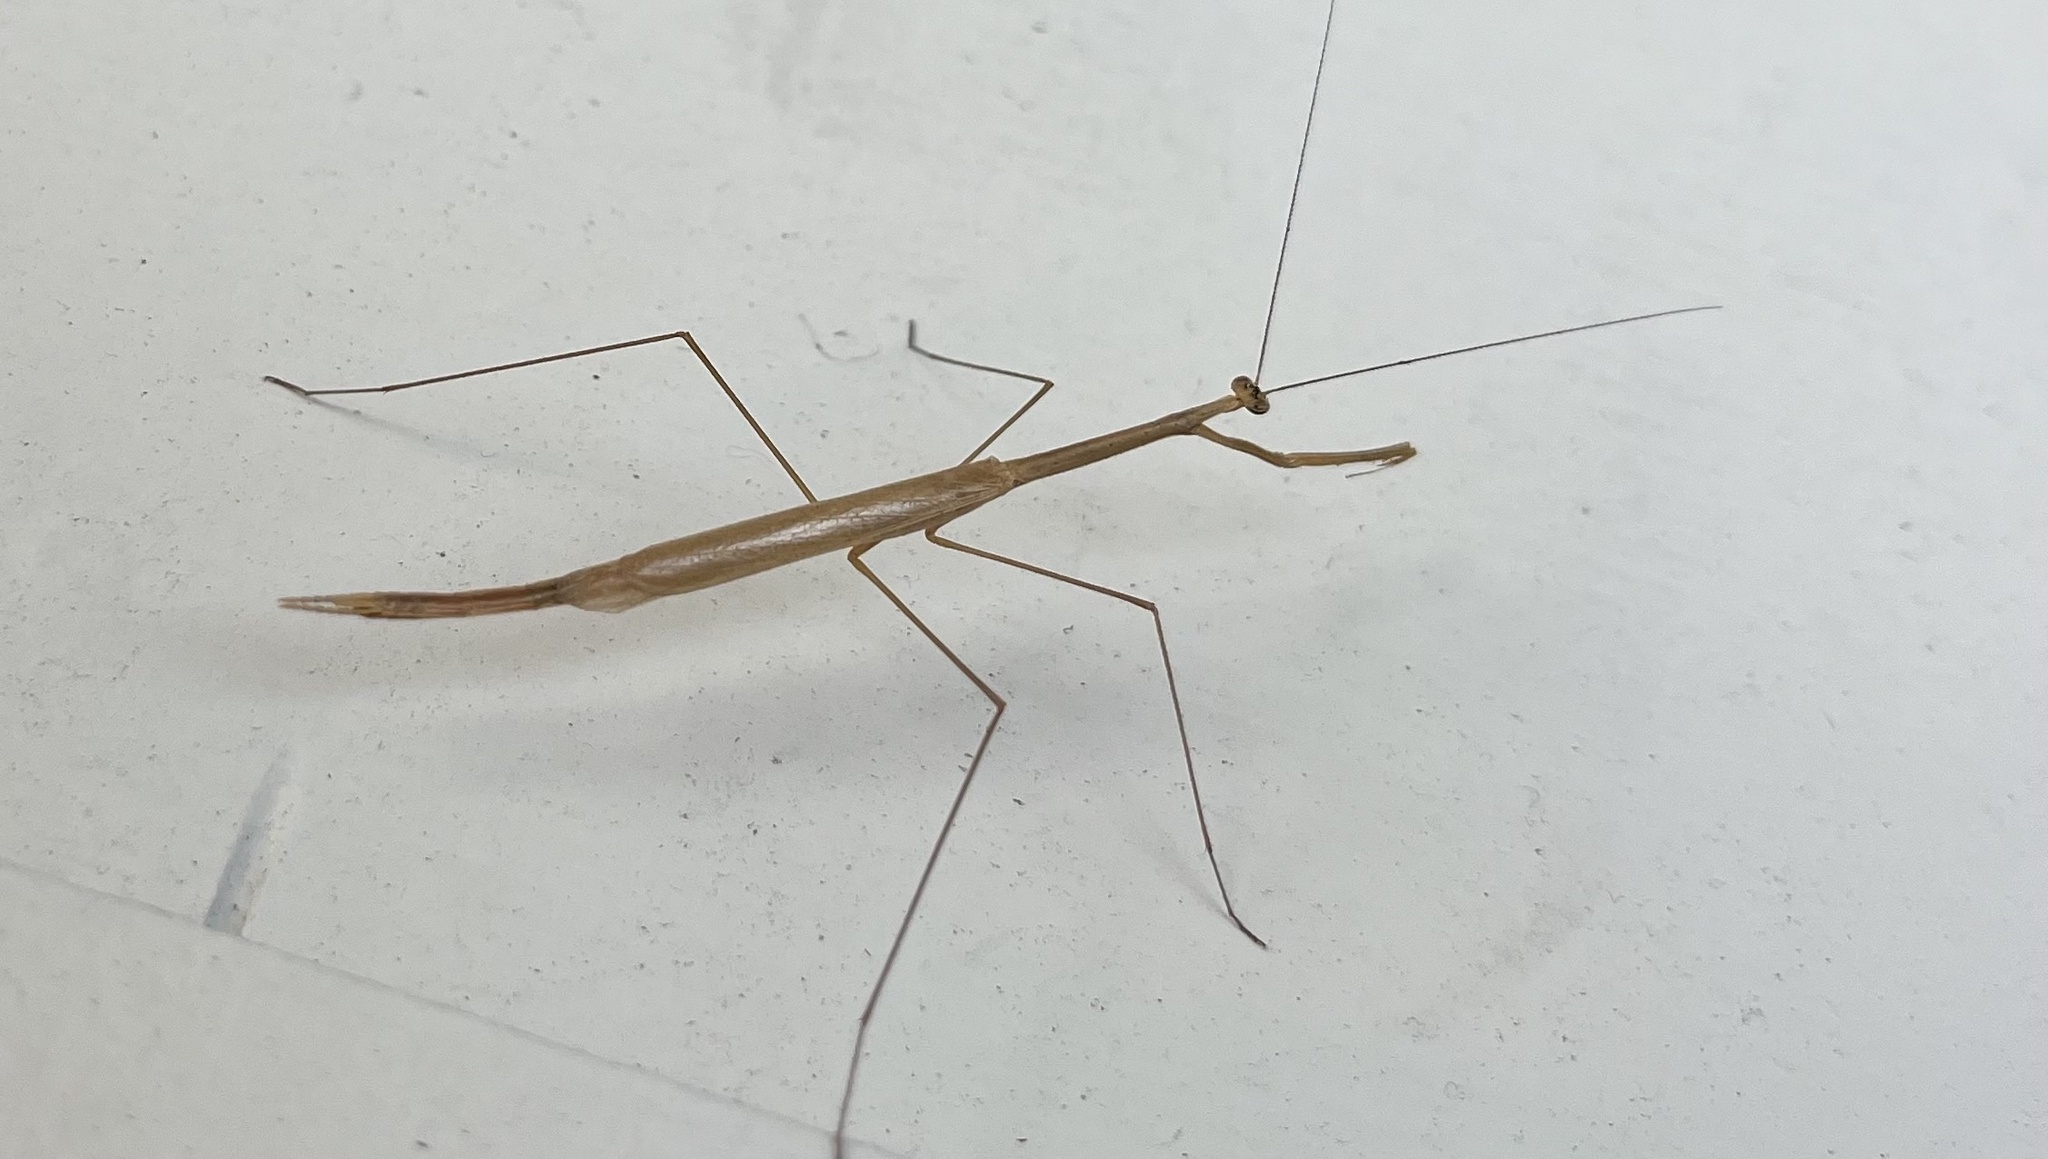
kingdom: Animalia
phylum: Arthropoda
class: Insecta
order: Mantodea
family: Thespidae
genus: Thesprotia
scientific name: Thesprotia graminis
